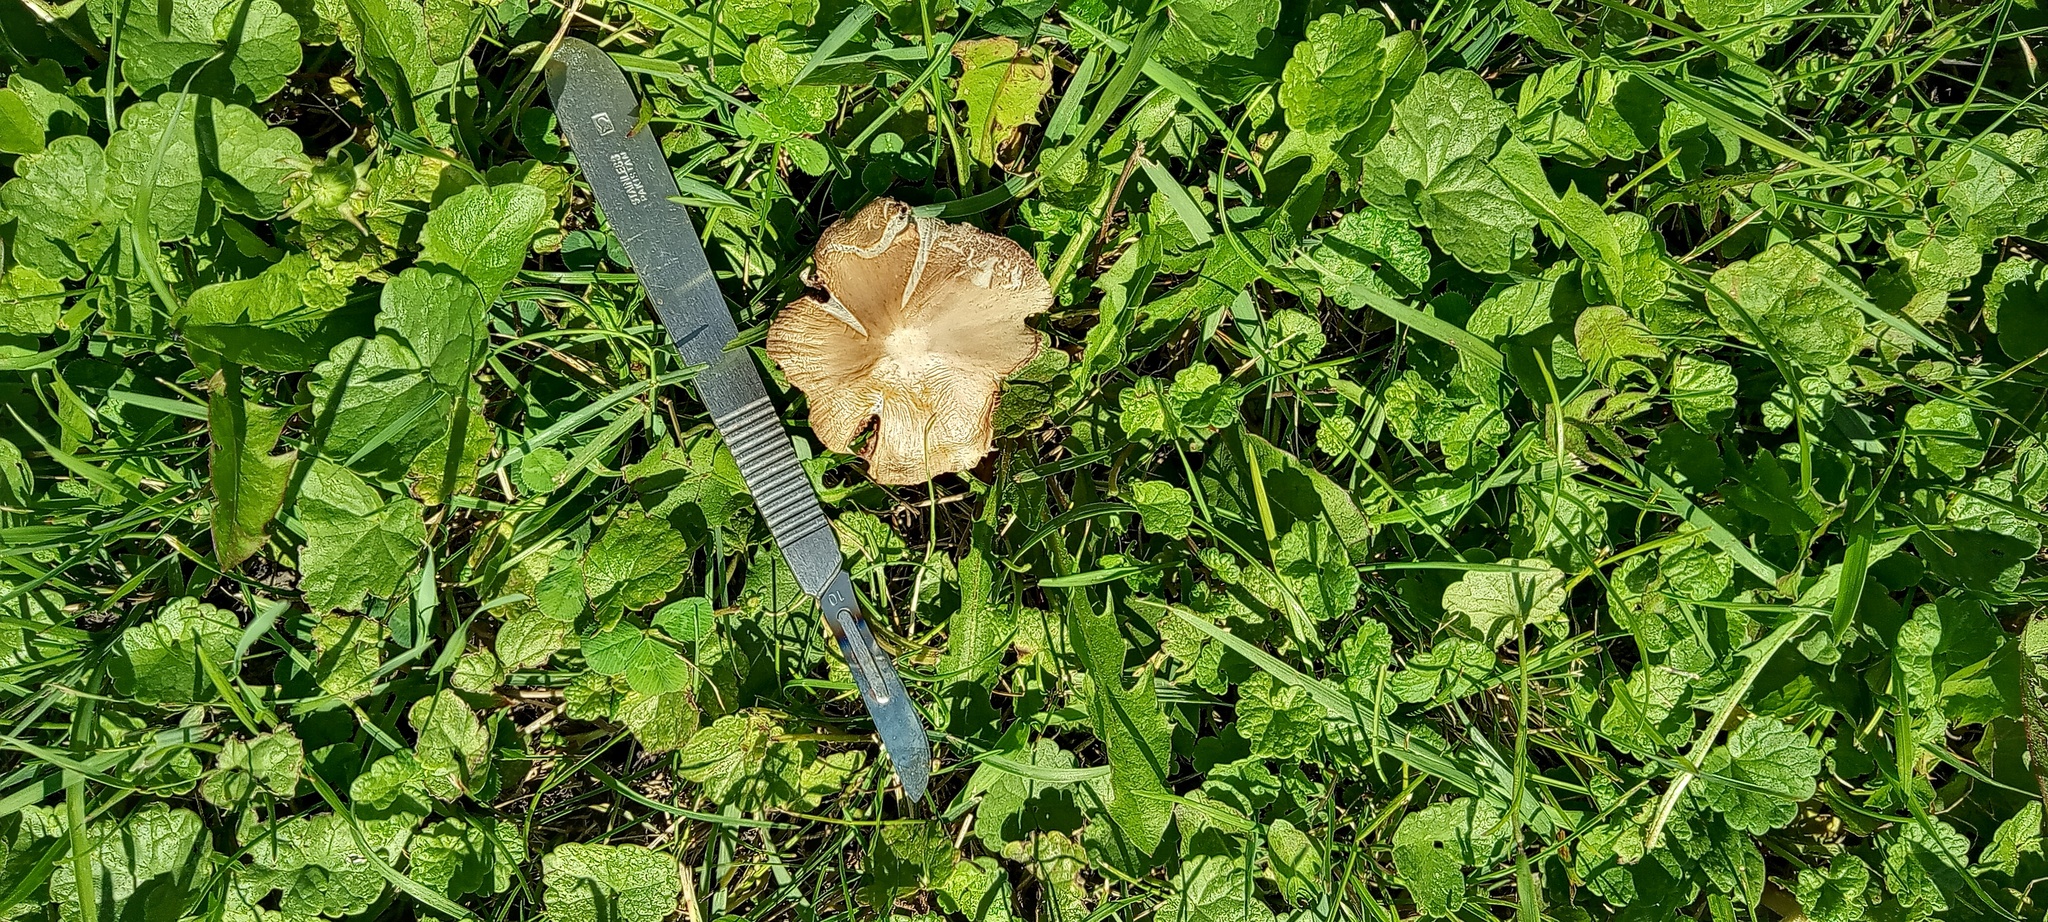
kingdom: Fungi
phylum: Basidiomycota
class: Agaricomycetes
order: Agaricales
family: Inocybaceae
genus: Pseudosperma
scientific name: Pseudosperma rimosum
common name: Split fibrecap
